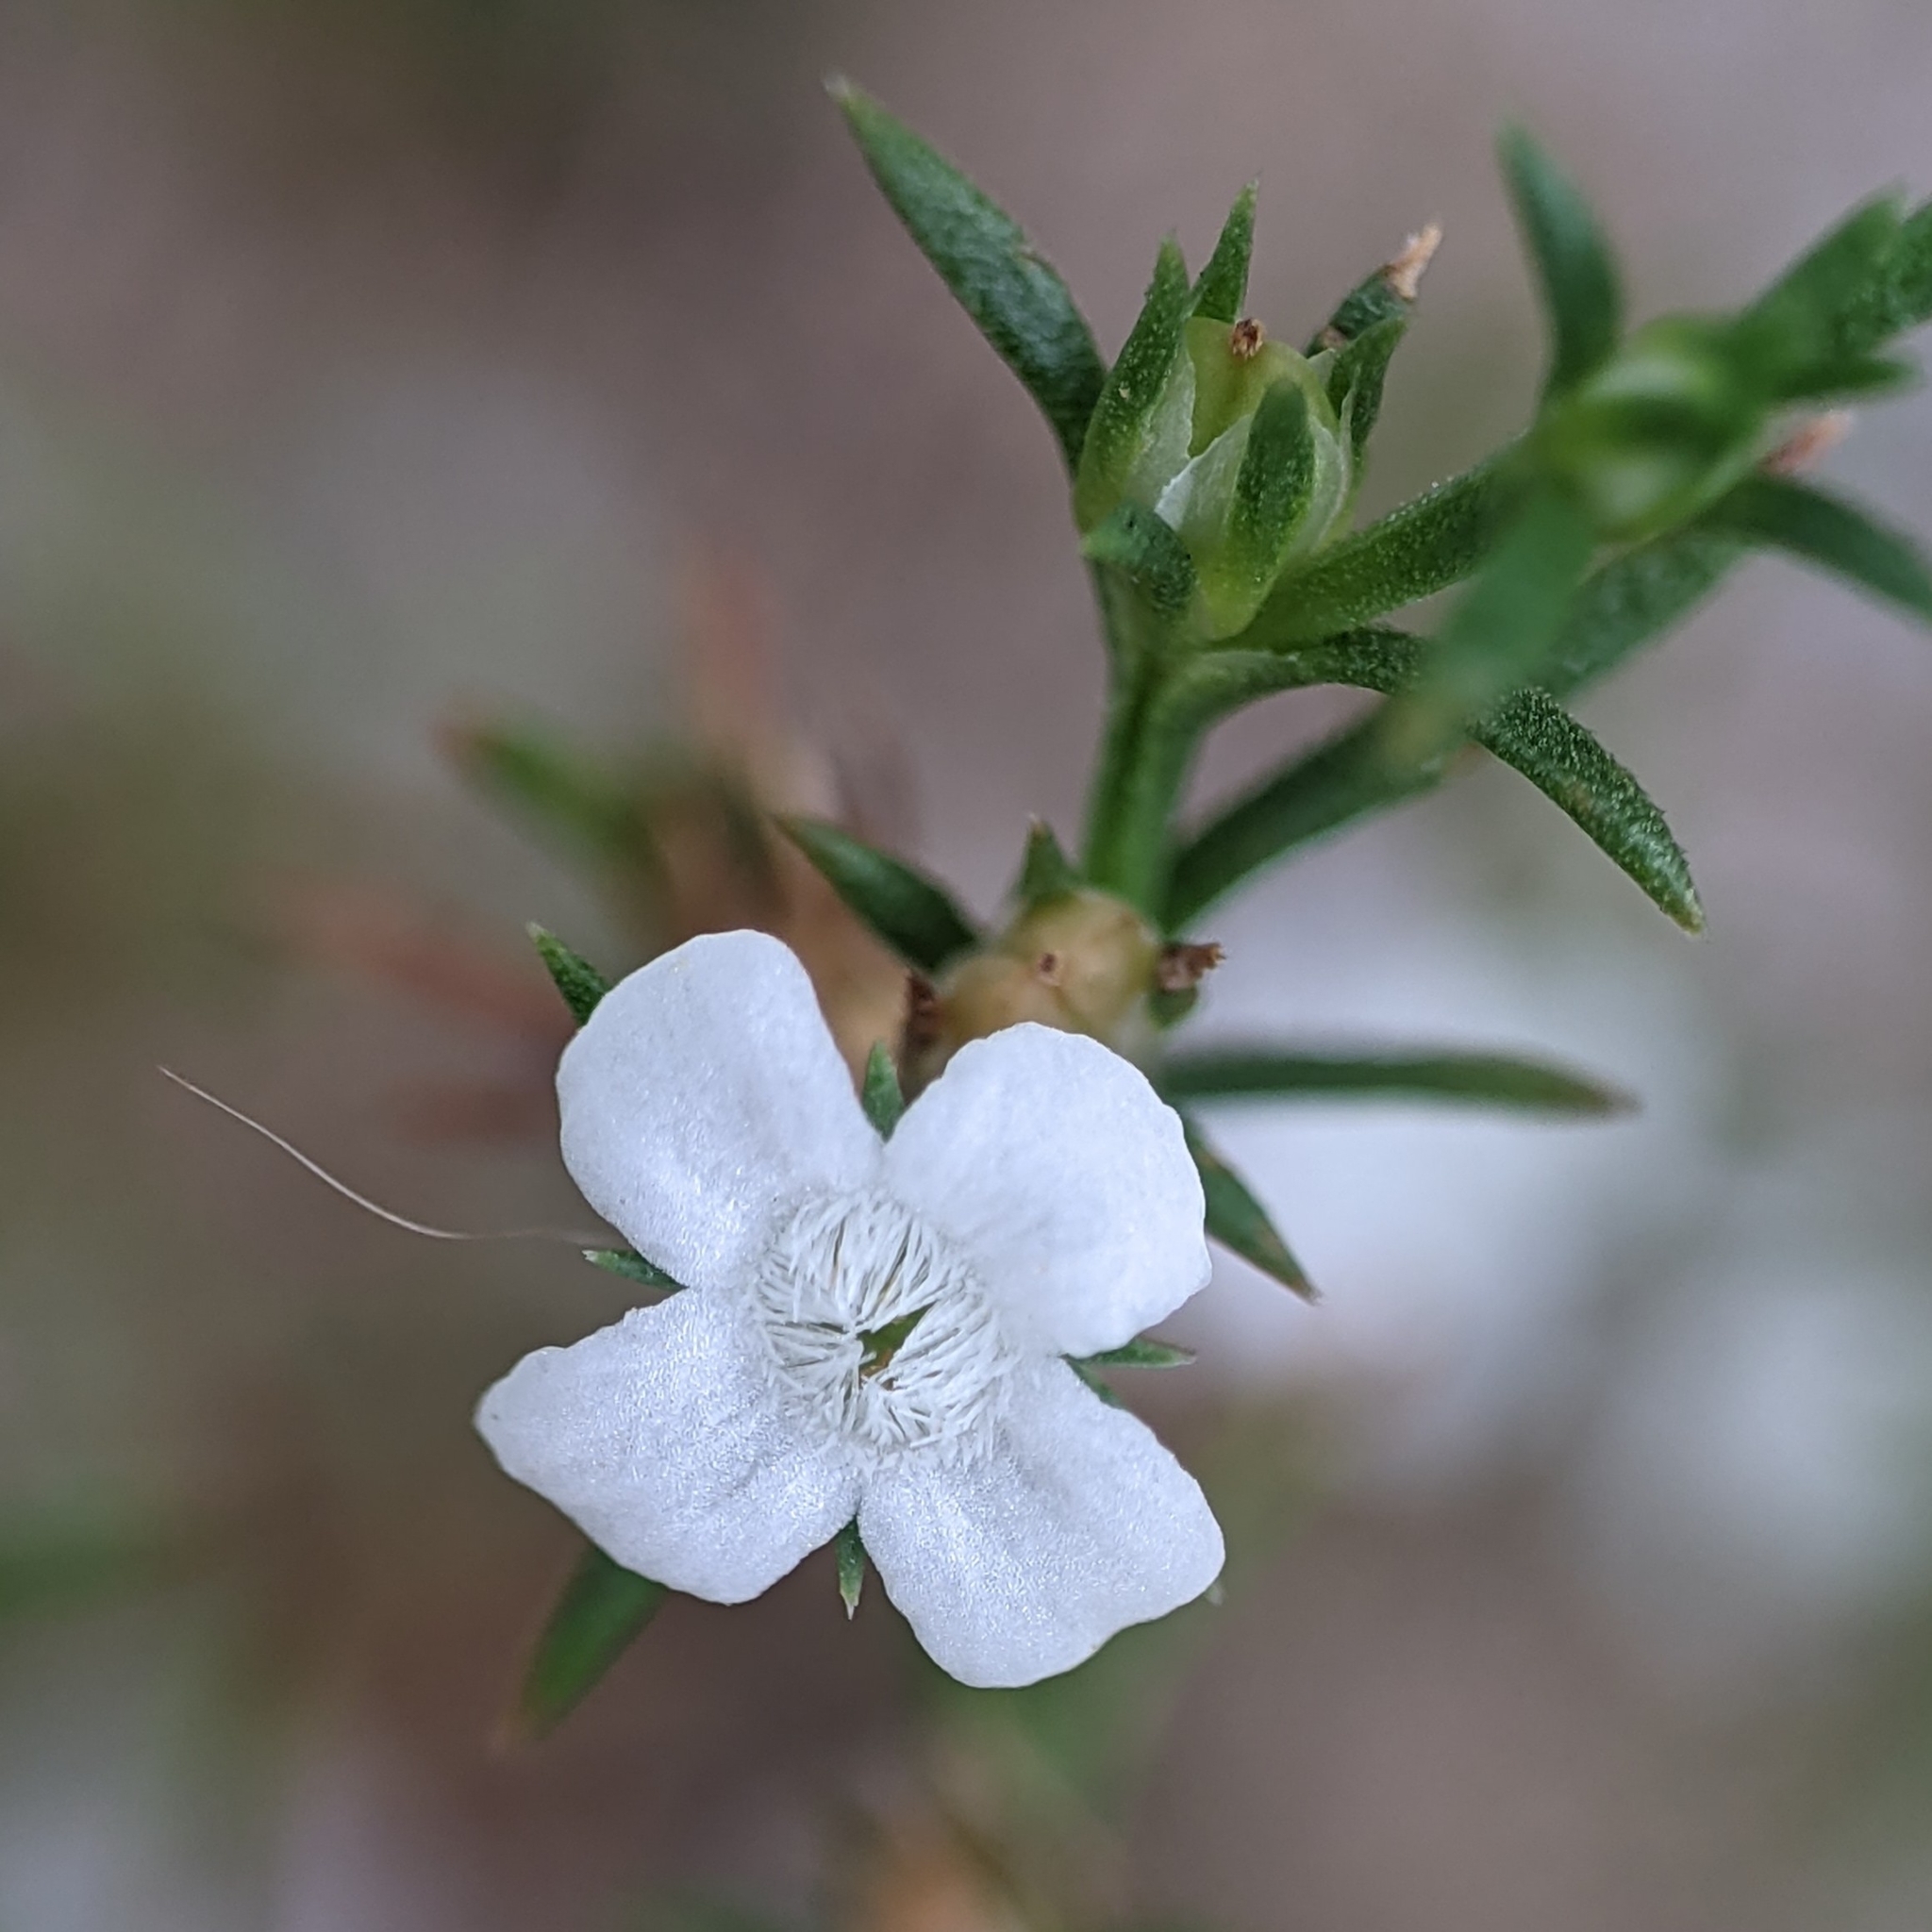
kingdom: Plantae
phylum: Tracheophyta
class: Magnoliopsida
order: Lamiales
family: Tetrachondraceae
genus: Polypremum
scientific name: Polypremum procumbens
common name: Juniper-leaf
